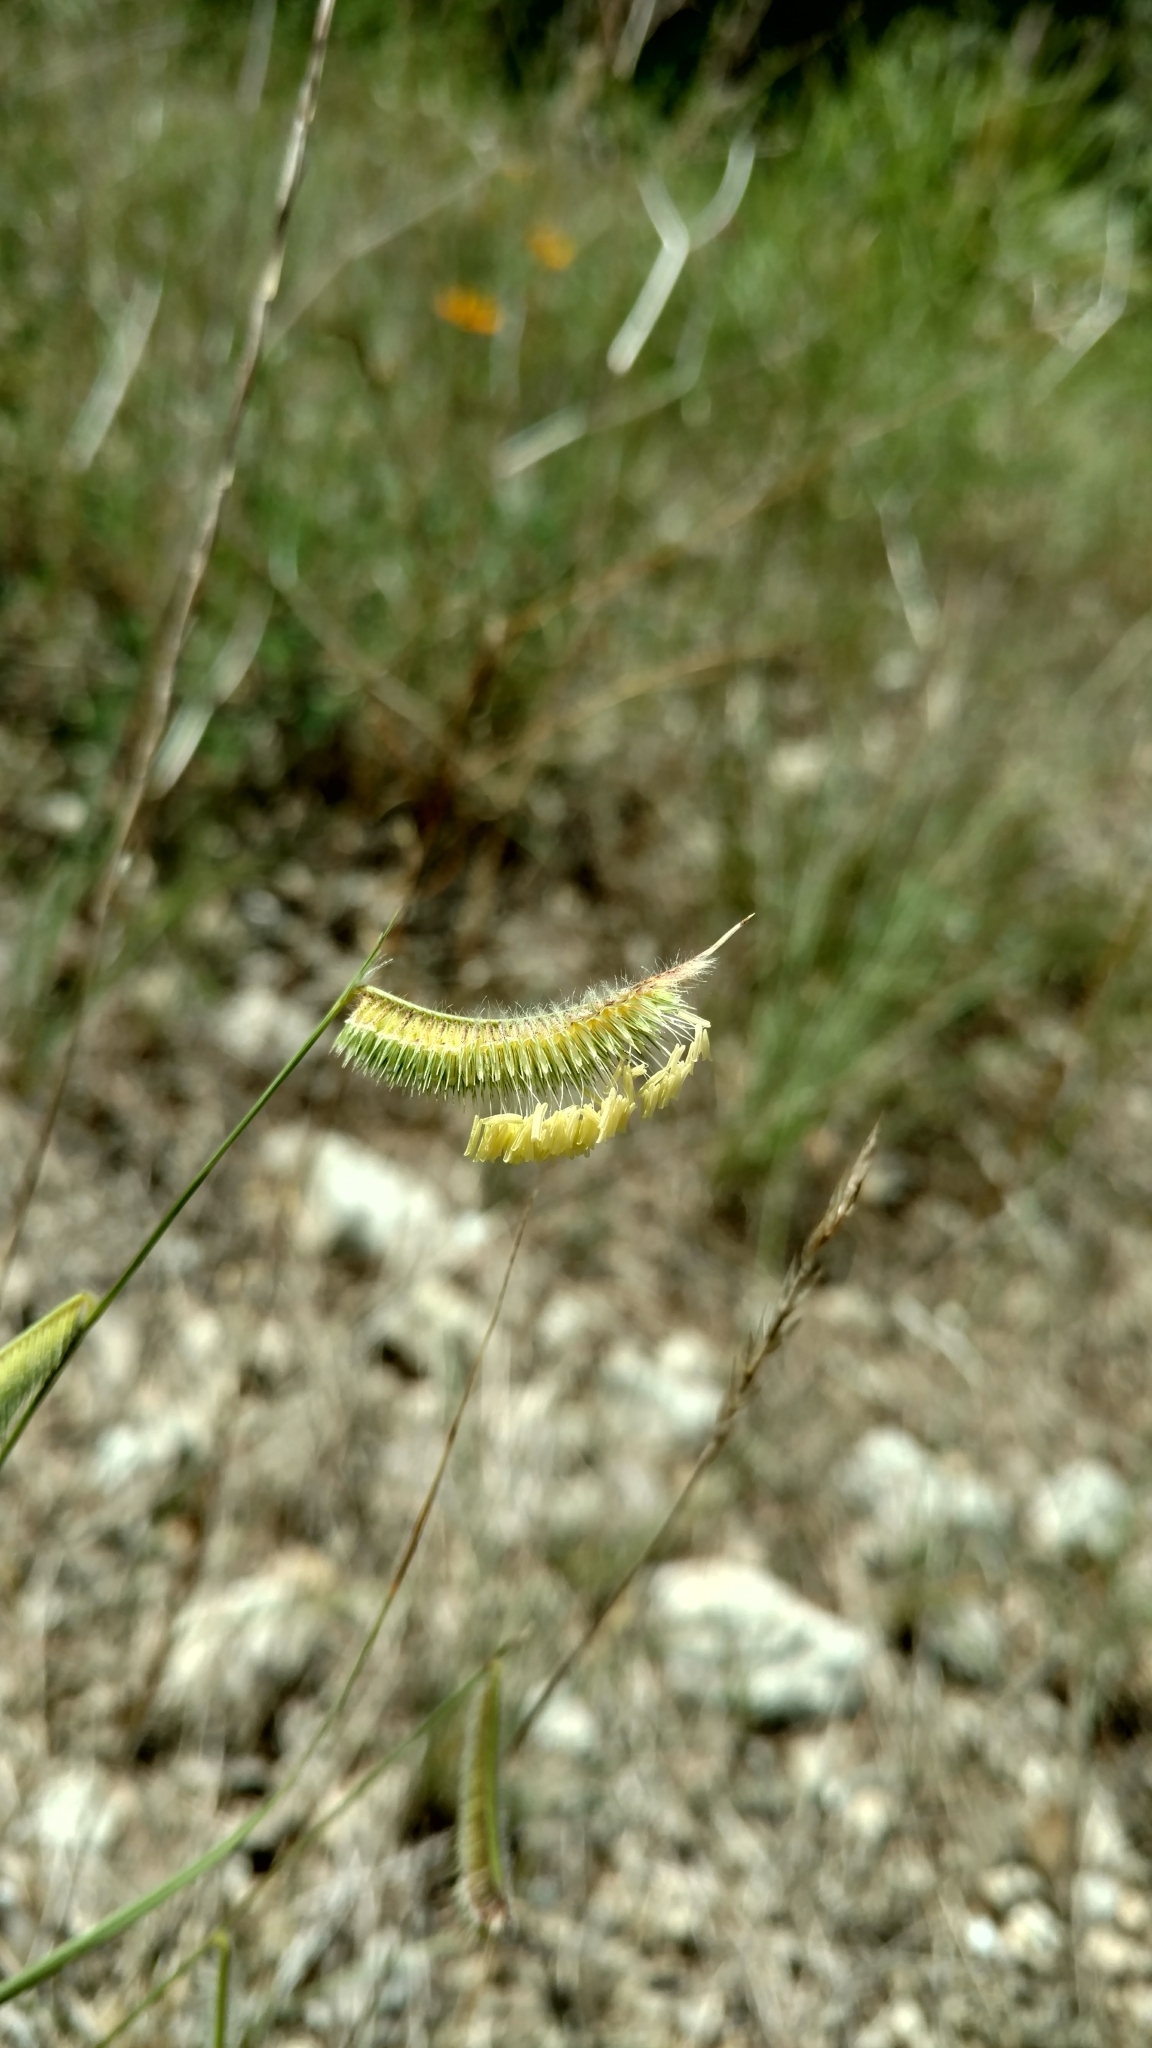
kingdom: Plantae
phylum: Tracheophyta
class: Liliopsida
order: Poales
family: Poaceae
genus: Bouteloua
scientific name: Bouteloua hirsuta
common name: Hairy grama
